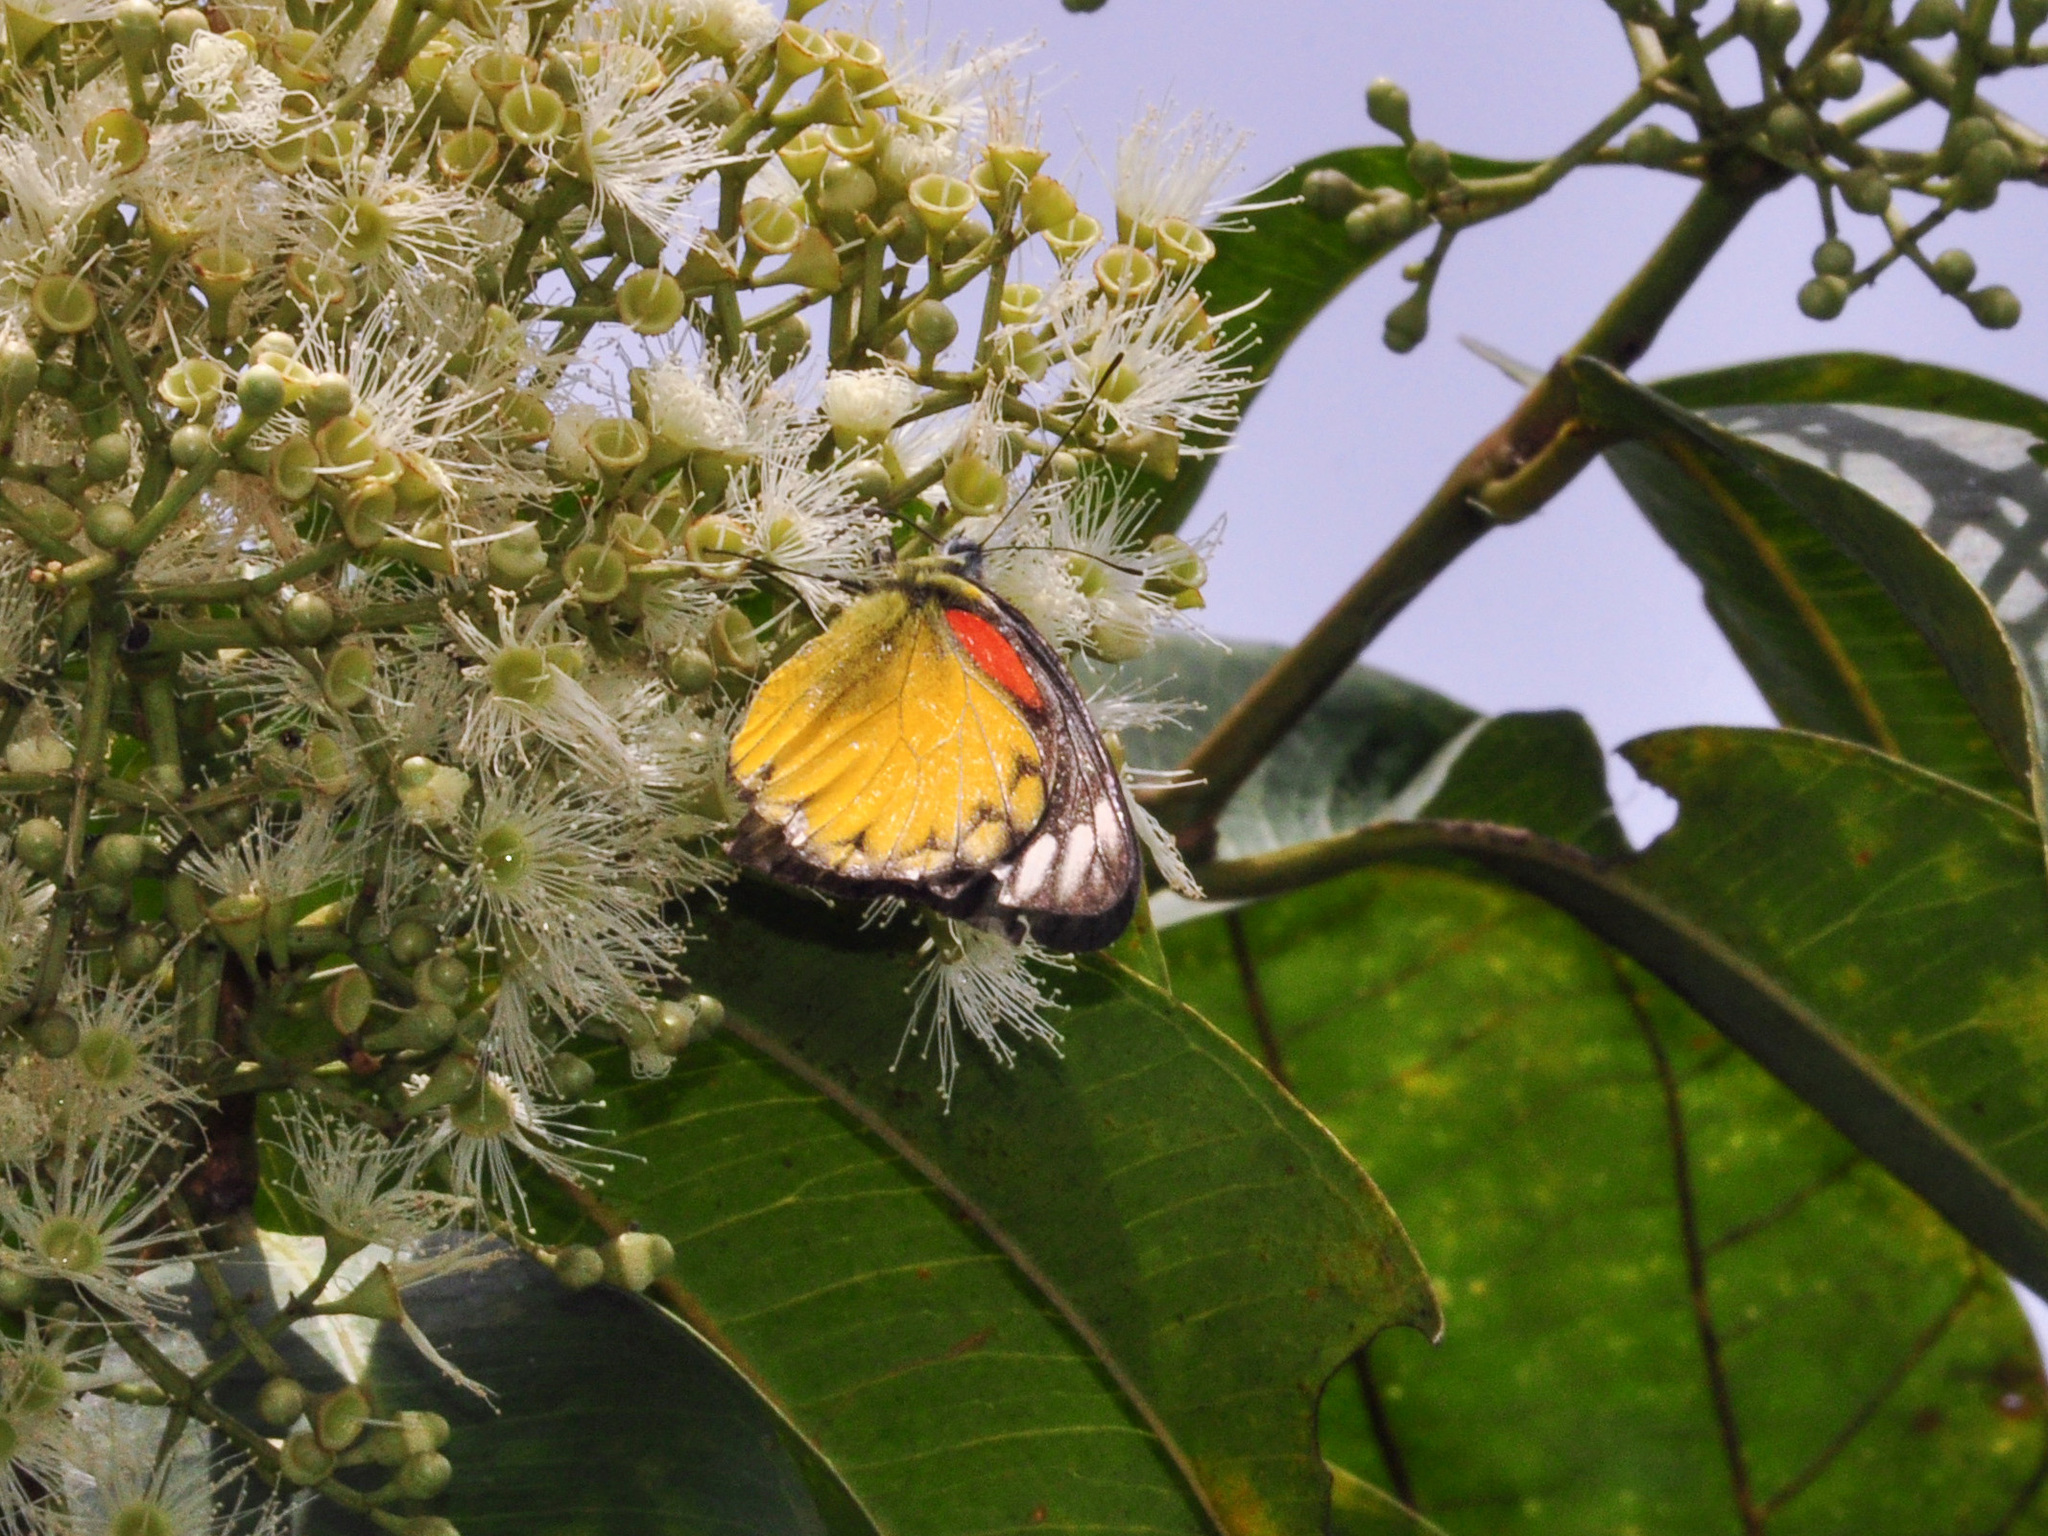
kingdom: Animalia
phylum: Arthropoda
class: Insecta
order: Lepidoptera
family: Pieridae
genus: Delias
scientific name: Delias descombesi
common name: Red-spot jezebel
